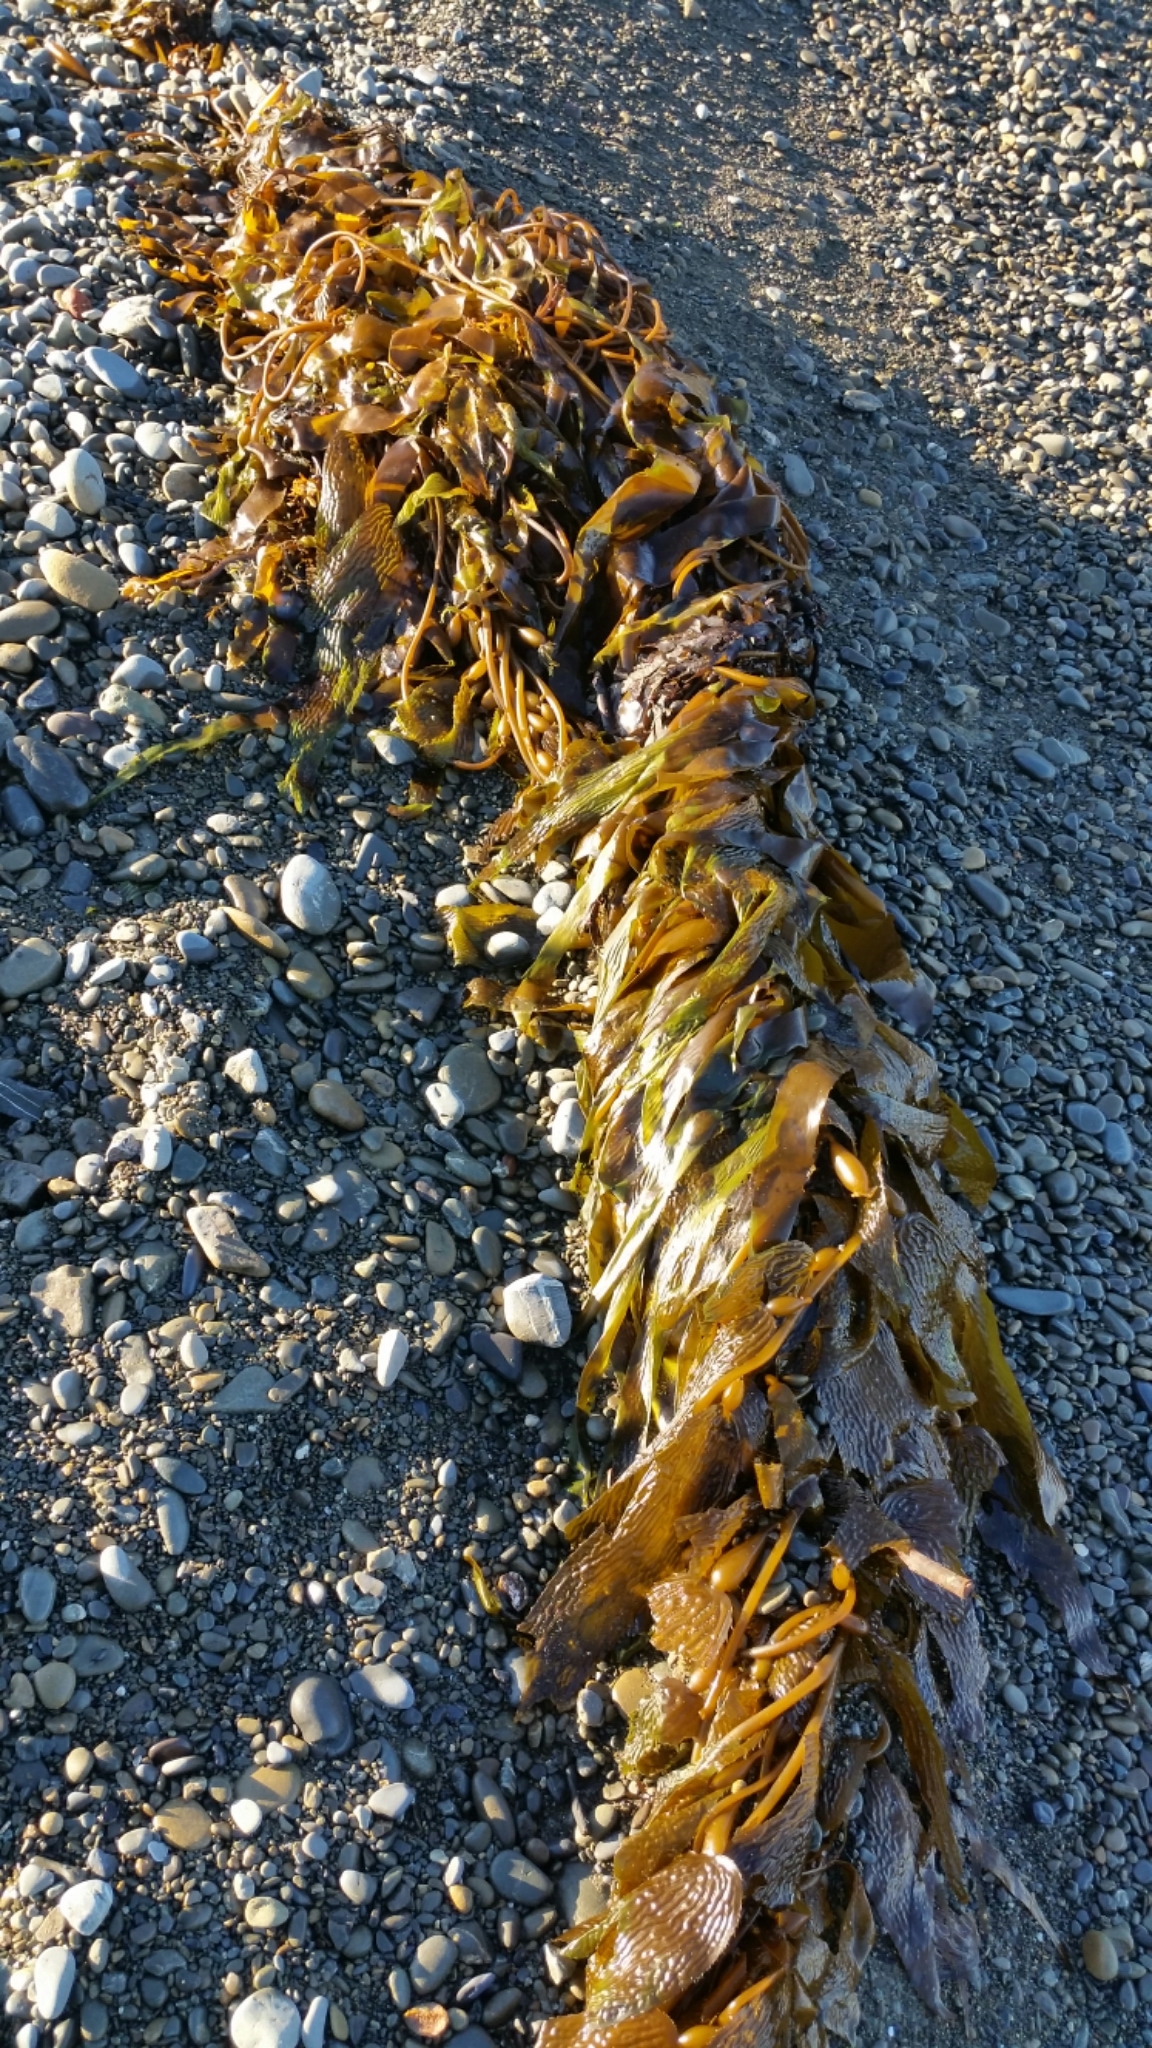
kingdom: Chromista
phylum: Ochrophyta
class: Phaeophyceae
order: Laminariales
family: Laminariaceae
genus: Macrocystis
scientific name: Macrocystis pyrifera
